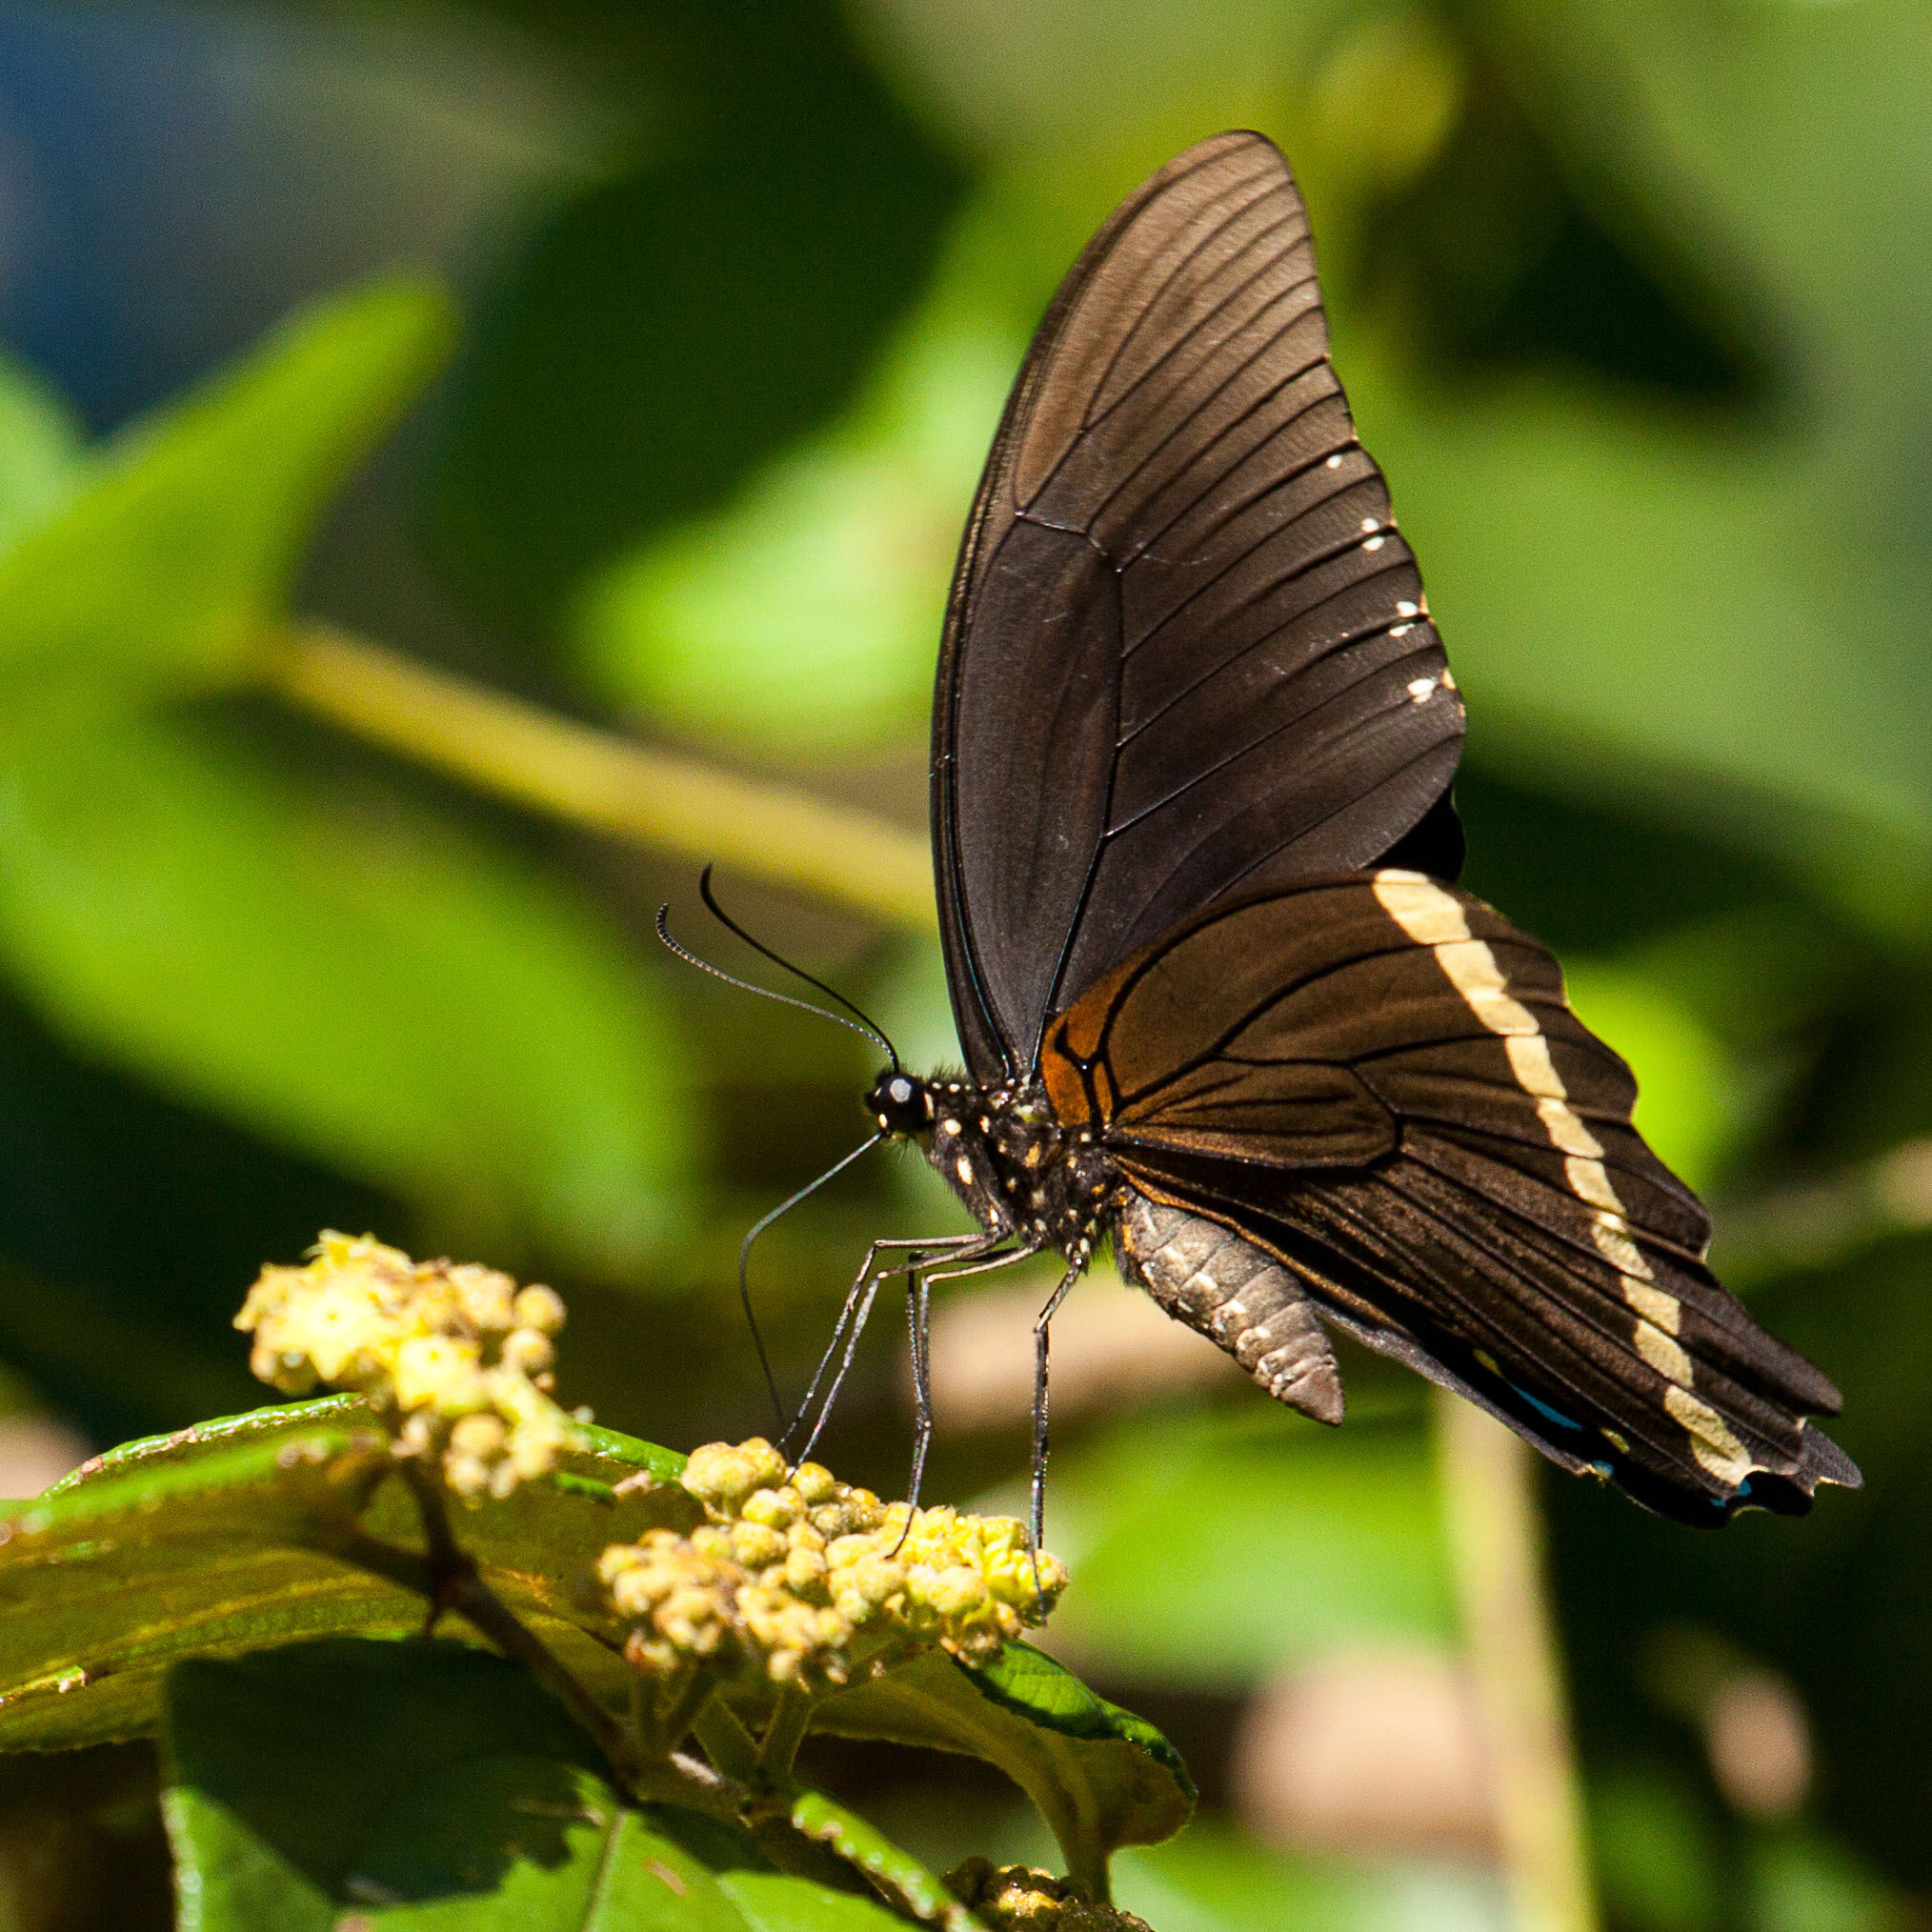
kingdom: Animalia
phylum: Arthropoda
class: Insecta
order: Lepidoptera
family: Papilionidae
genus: Papilio
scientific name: Papilio nireus
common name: Greenbanded swallowtail
